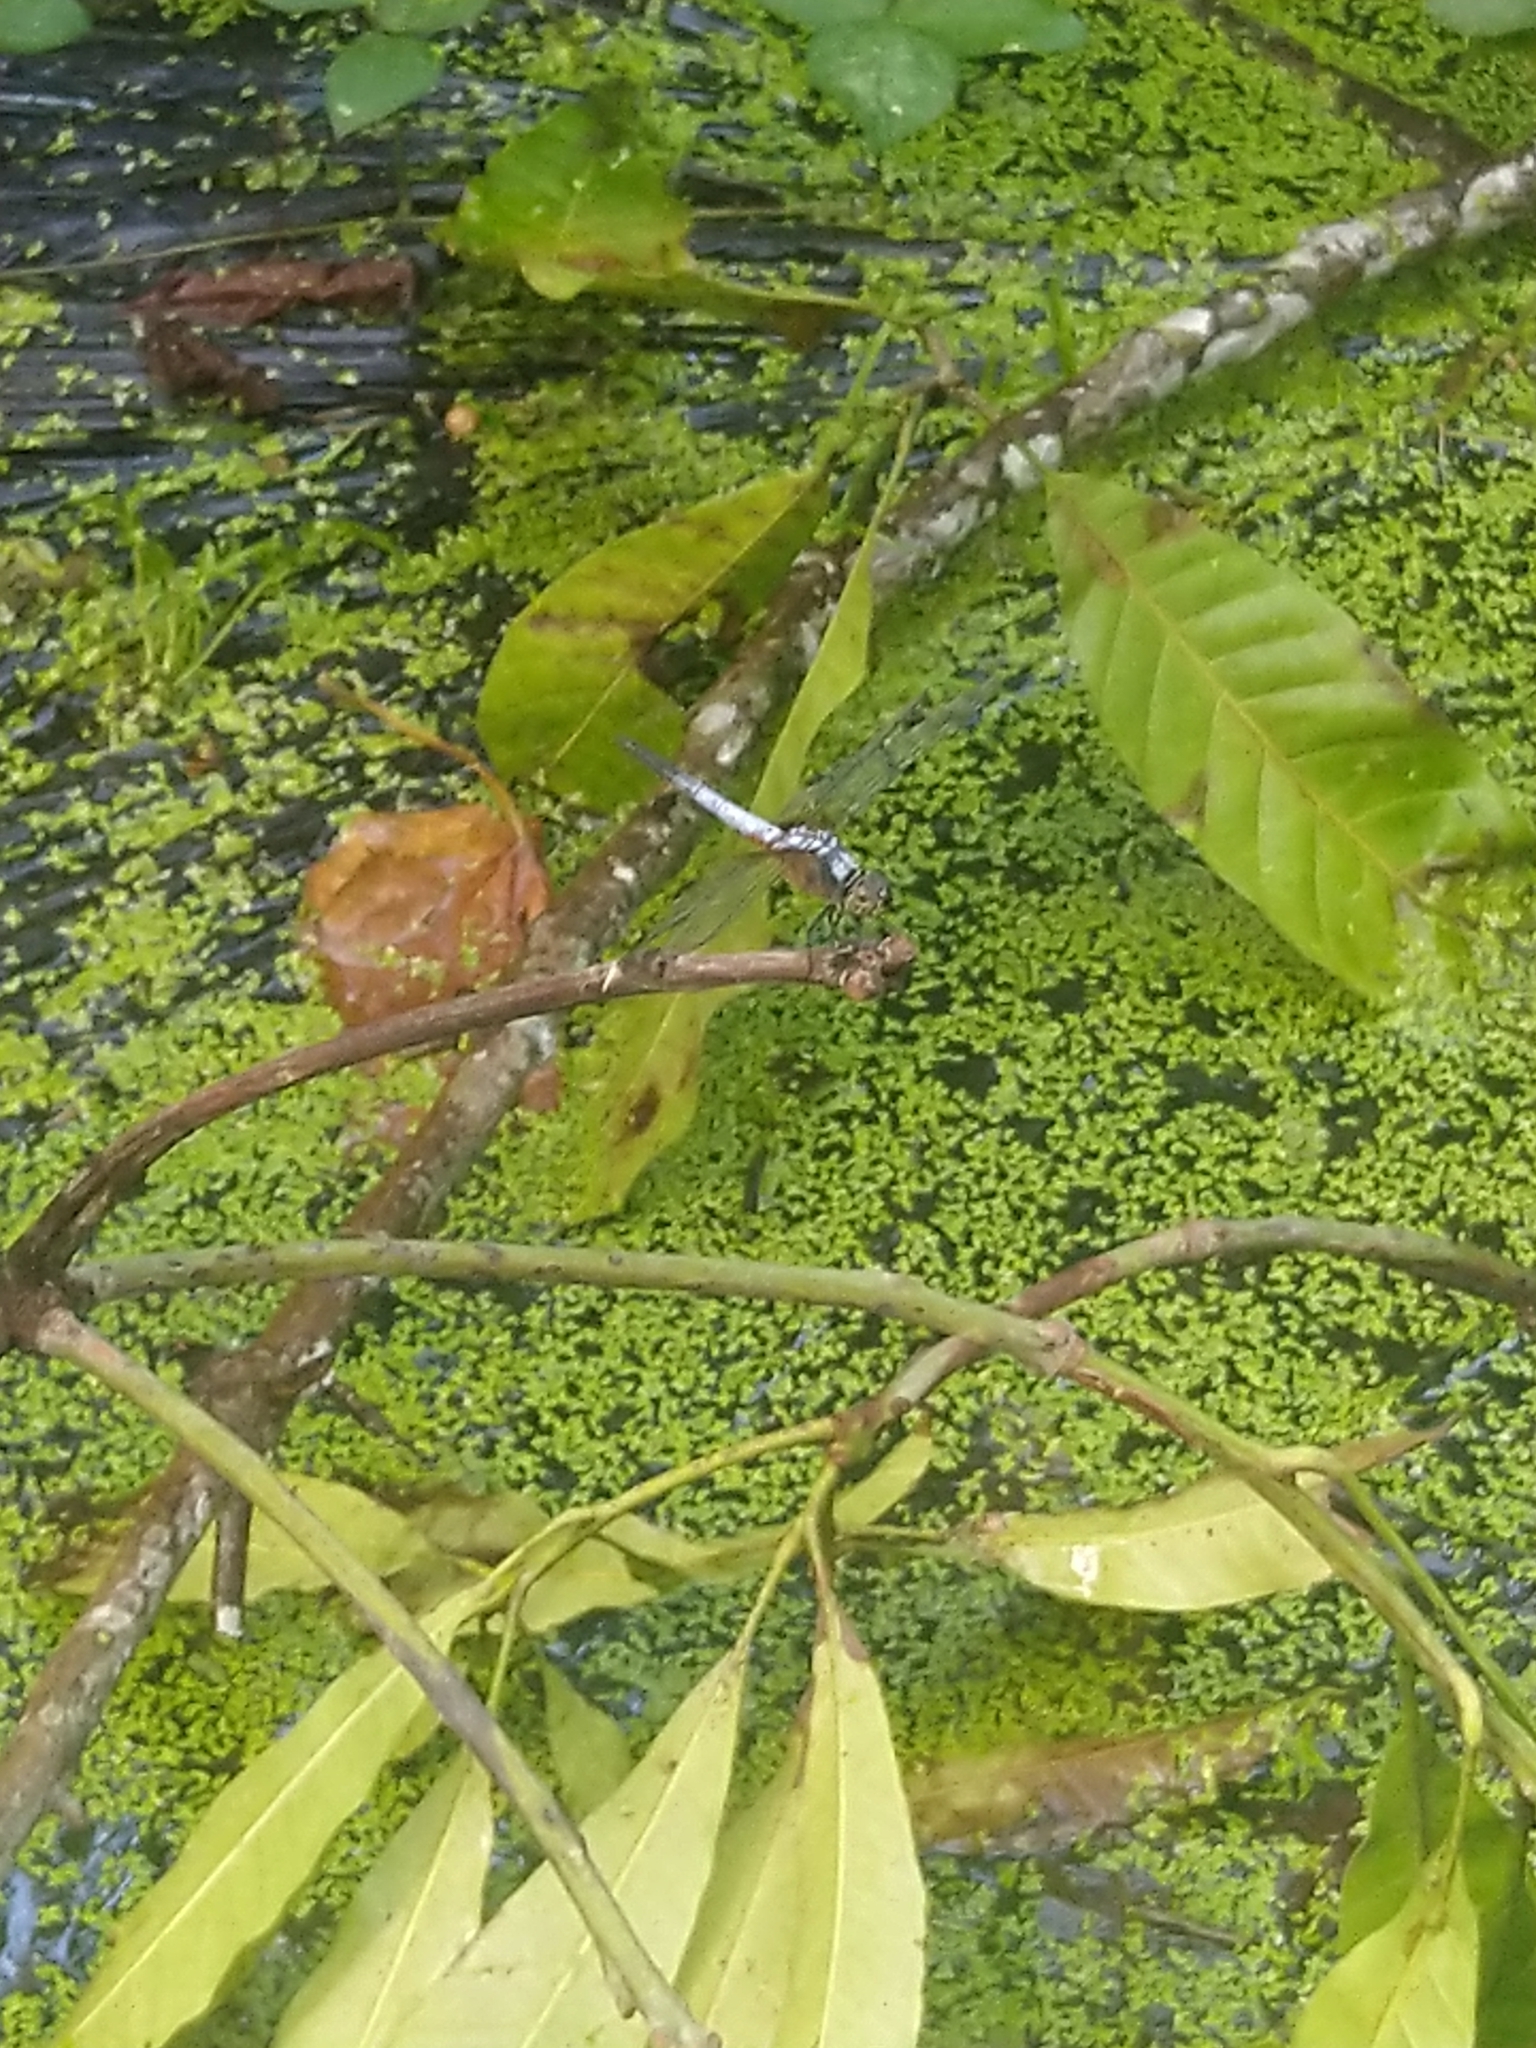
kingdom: Animalia
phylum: Arthropoda
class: Insecta
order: Odonata
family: Libellulidae
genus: Brachydiplax
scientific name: Brachydiplax chalybea
